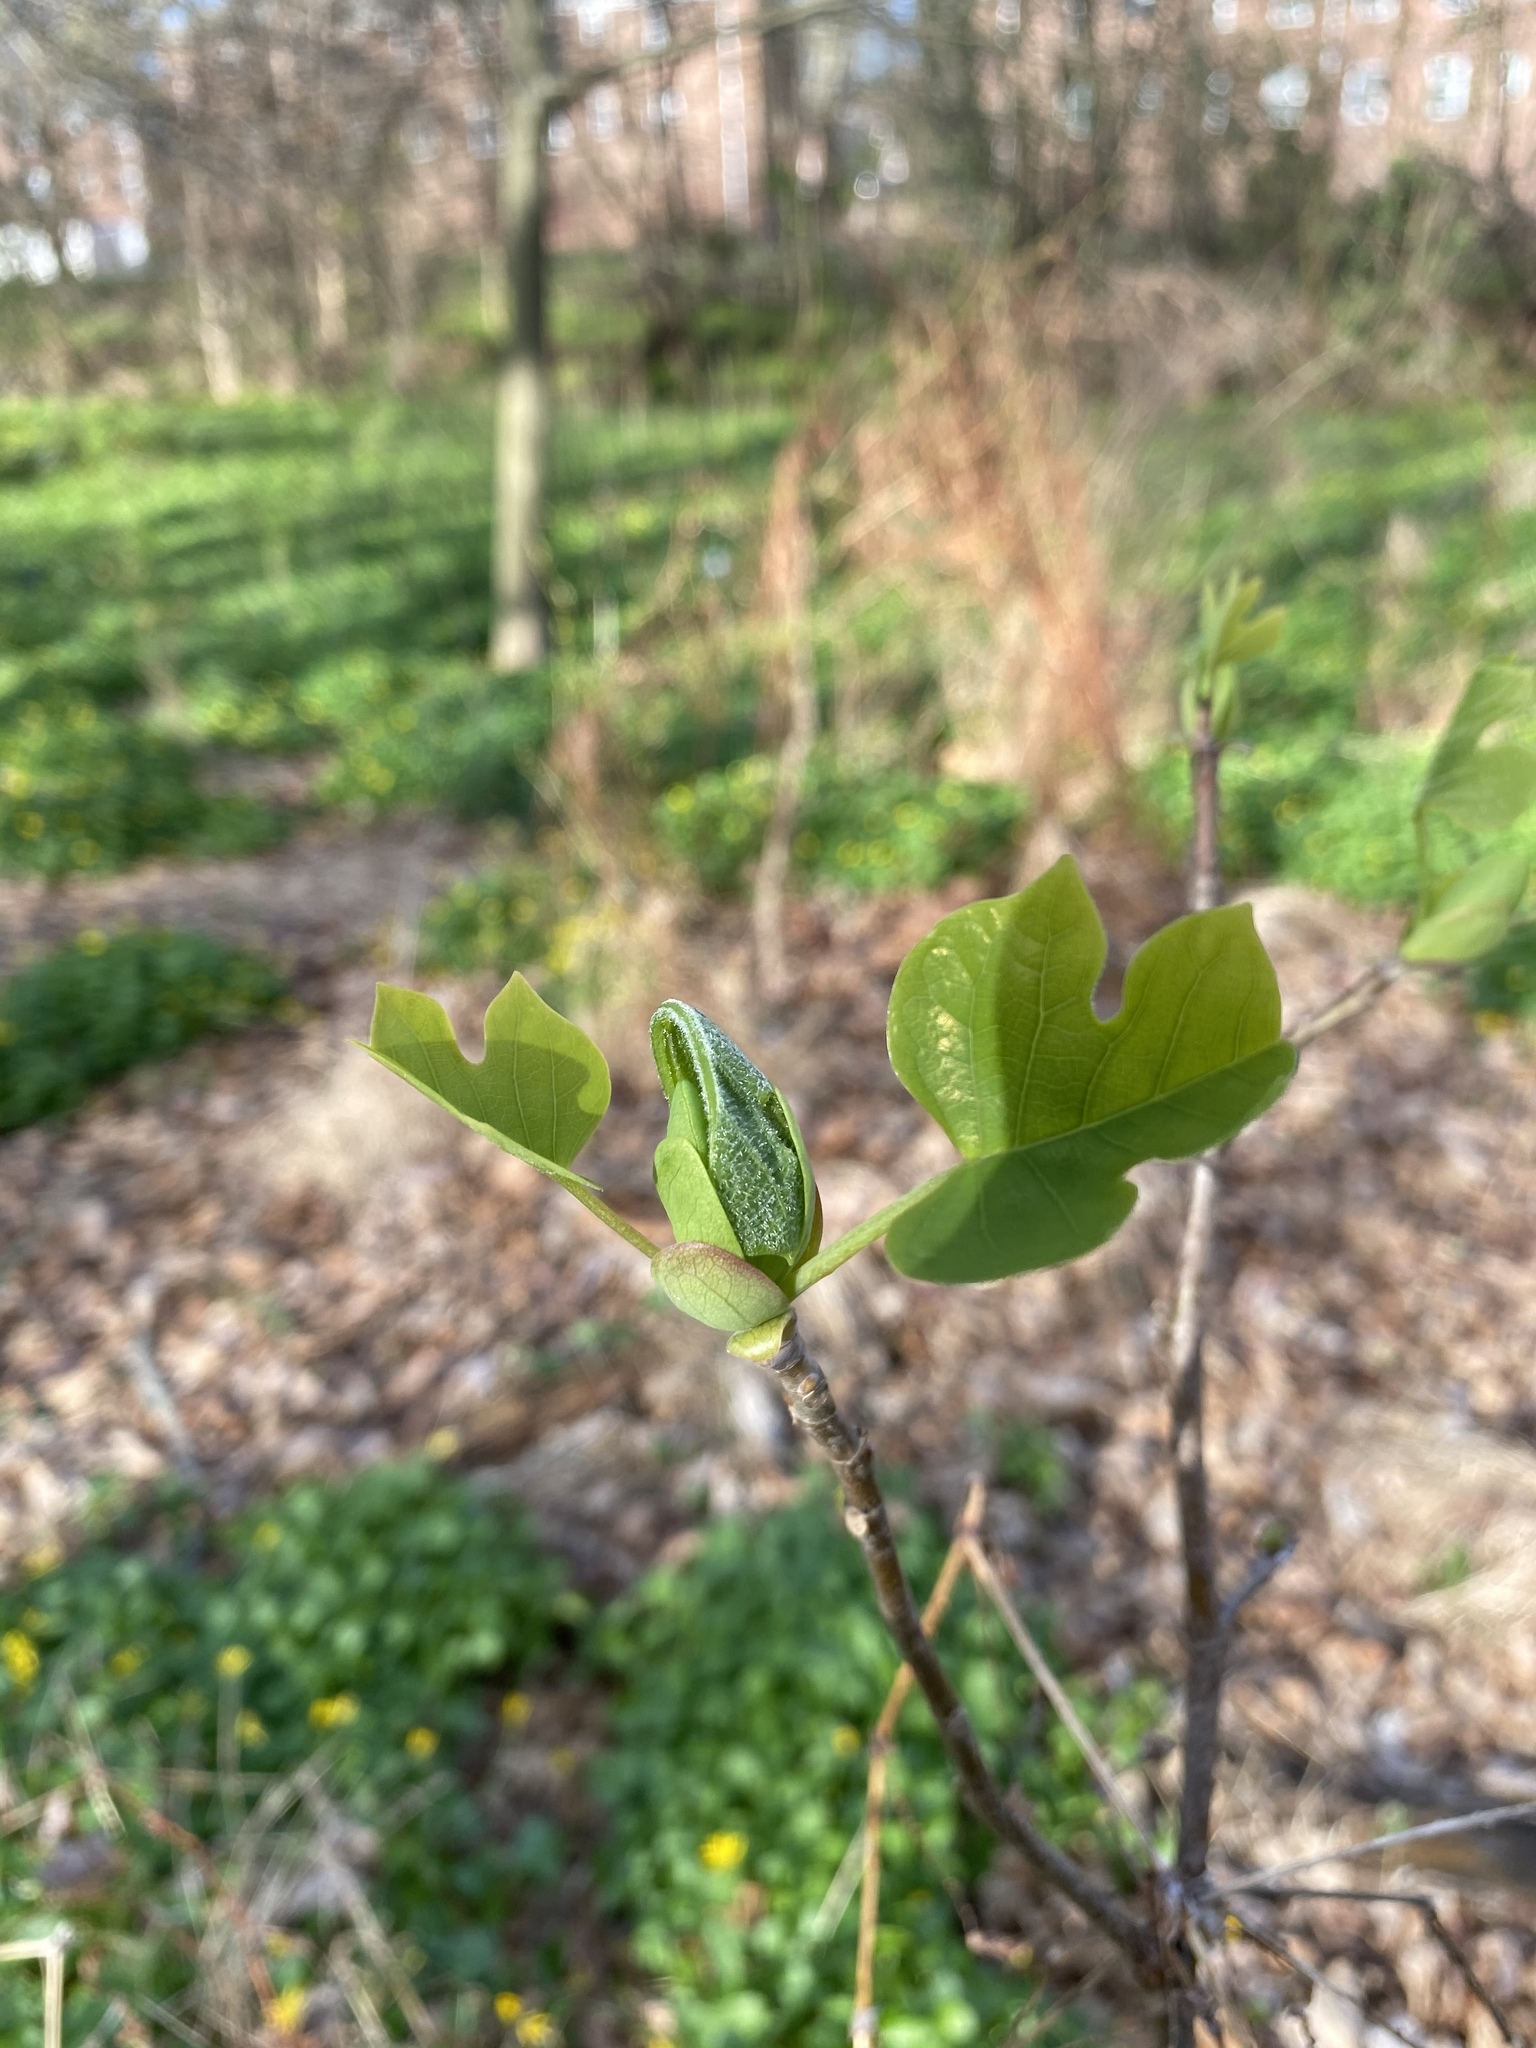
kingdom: Plantae
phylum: Tracheophyta
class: Magnoliopsida
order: Magnoliales
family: Magnoliaceae
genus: Liriodendron
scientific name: Liriodendron tulipifera
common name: Tulip tree
